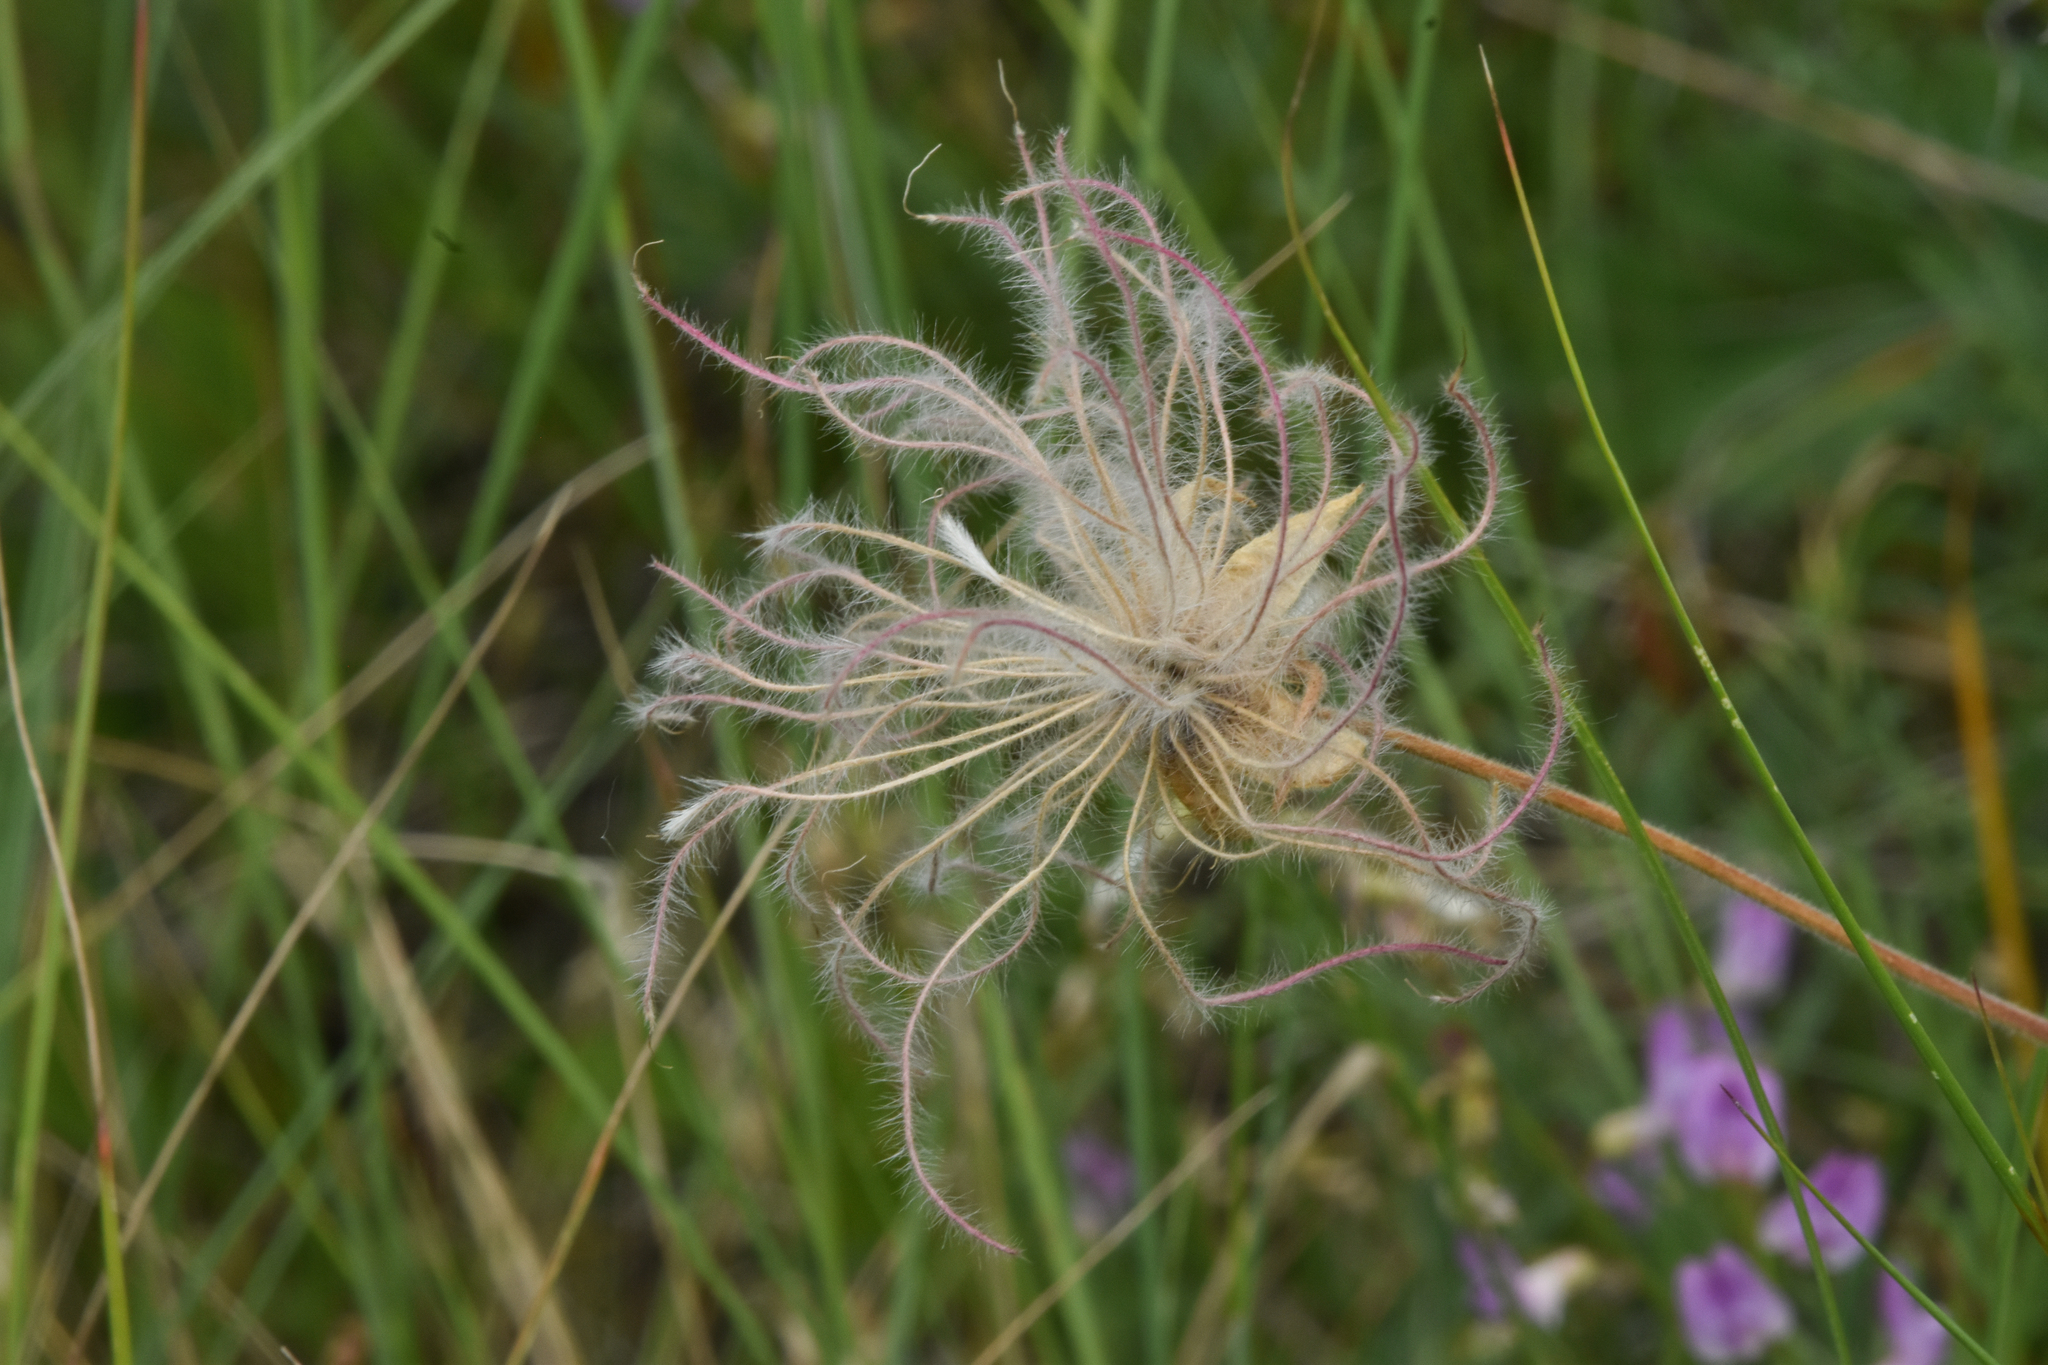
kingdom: Plantae
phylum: Tracheophyta
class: Magnoliopsida
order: Rosales
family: Rosaceae
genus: Geum
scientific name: Geum triflorum
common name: Old man's whiskers
